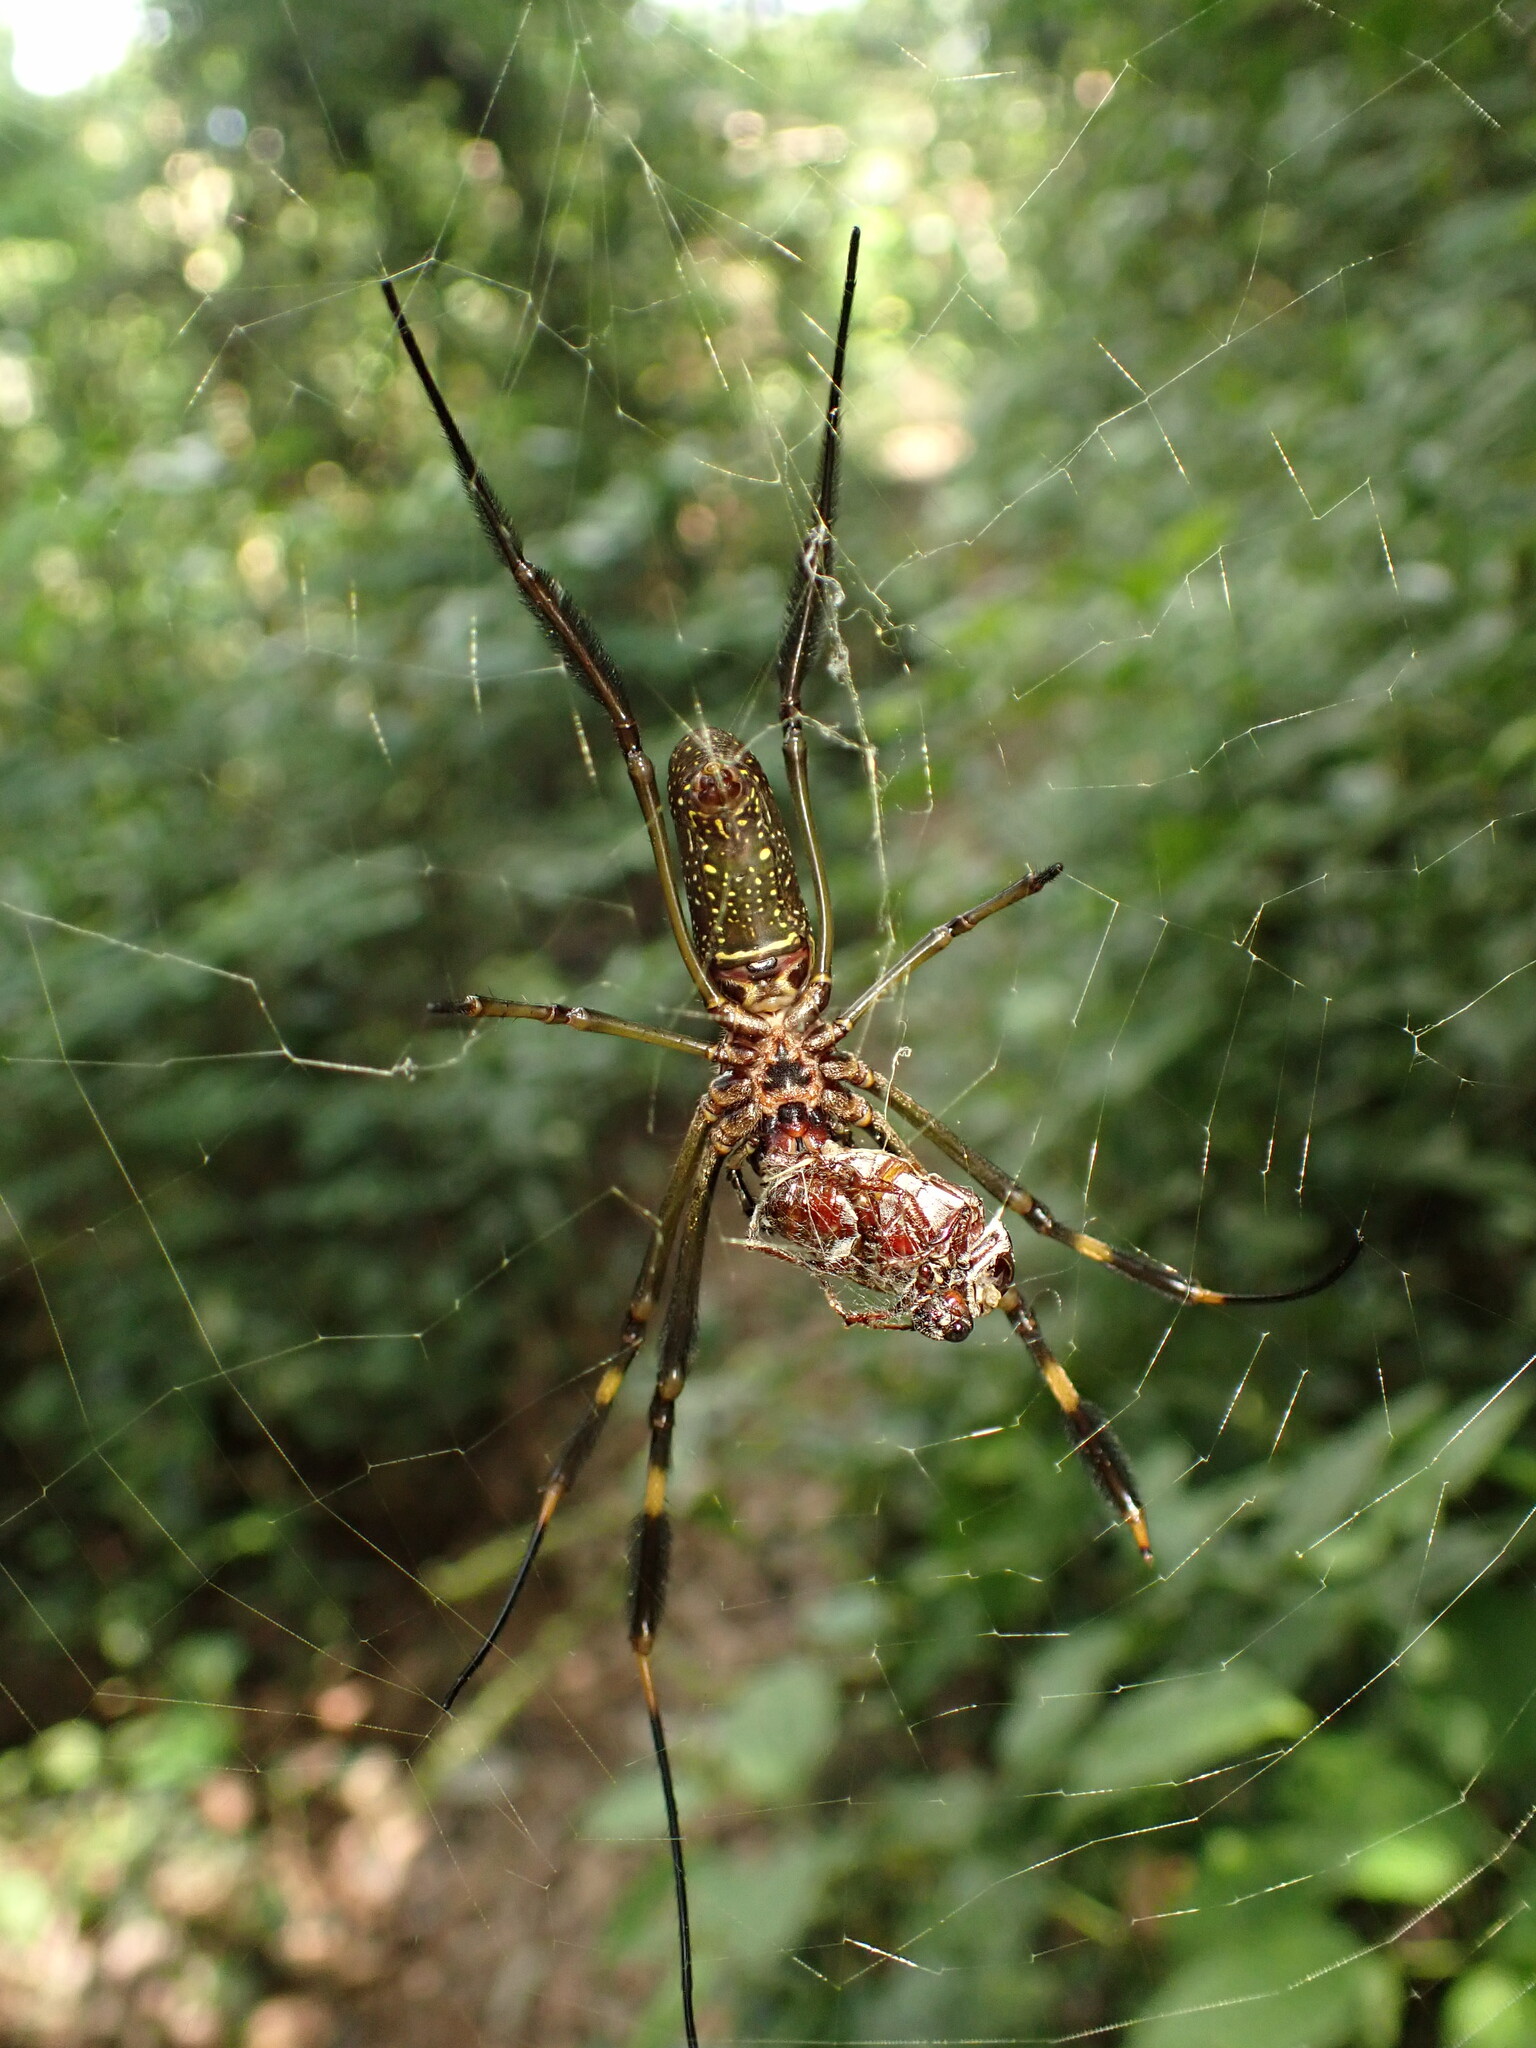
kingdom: Animalia
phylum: Arthropoda
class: Arachnida
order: Araneae
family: Araneidae
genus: Trichonephila
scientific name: Trichonephila clavipes
